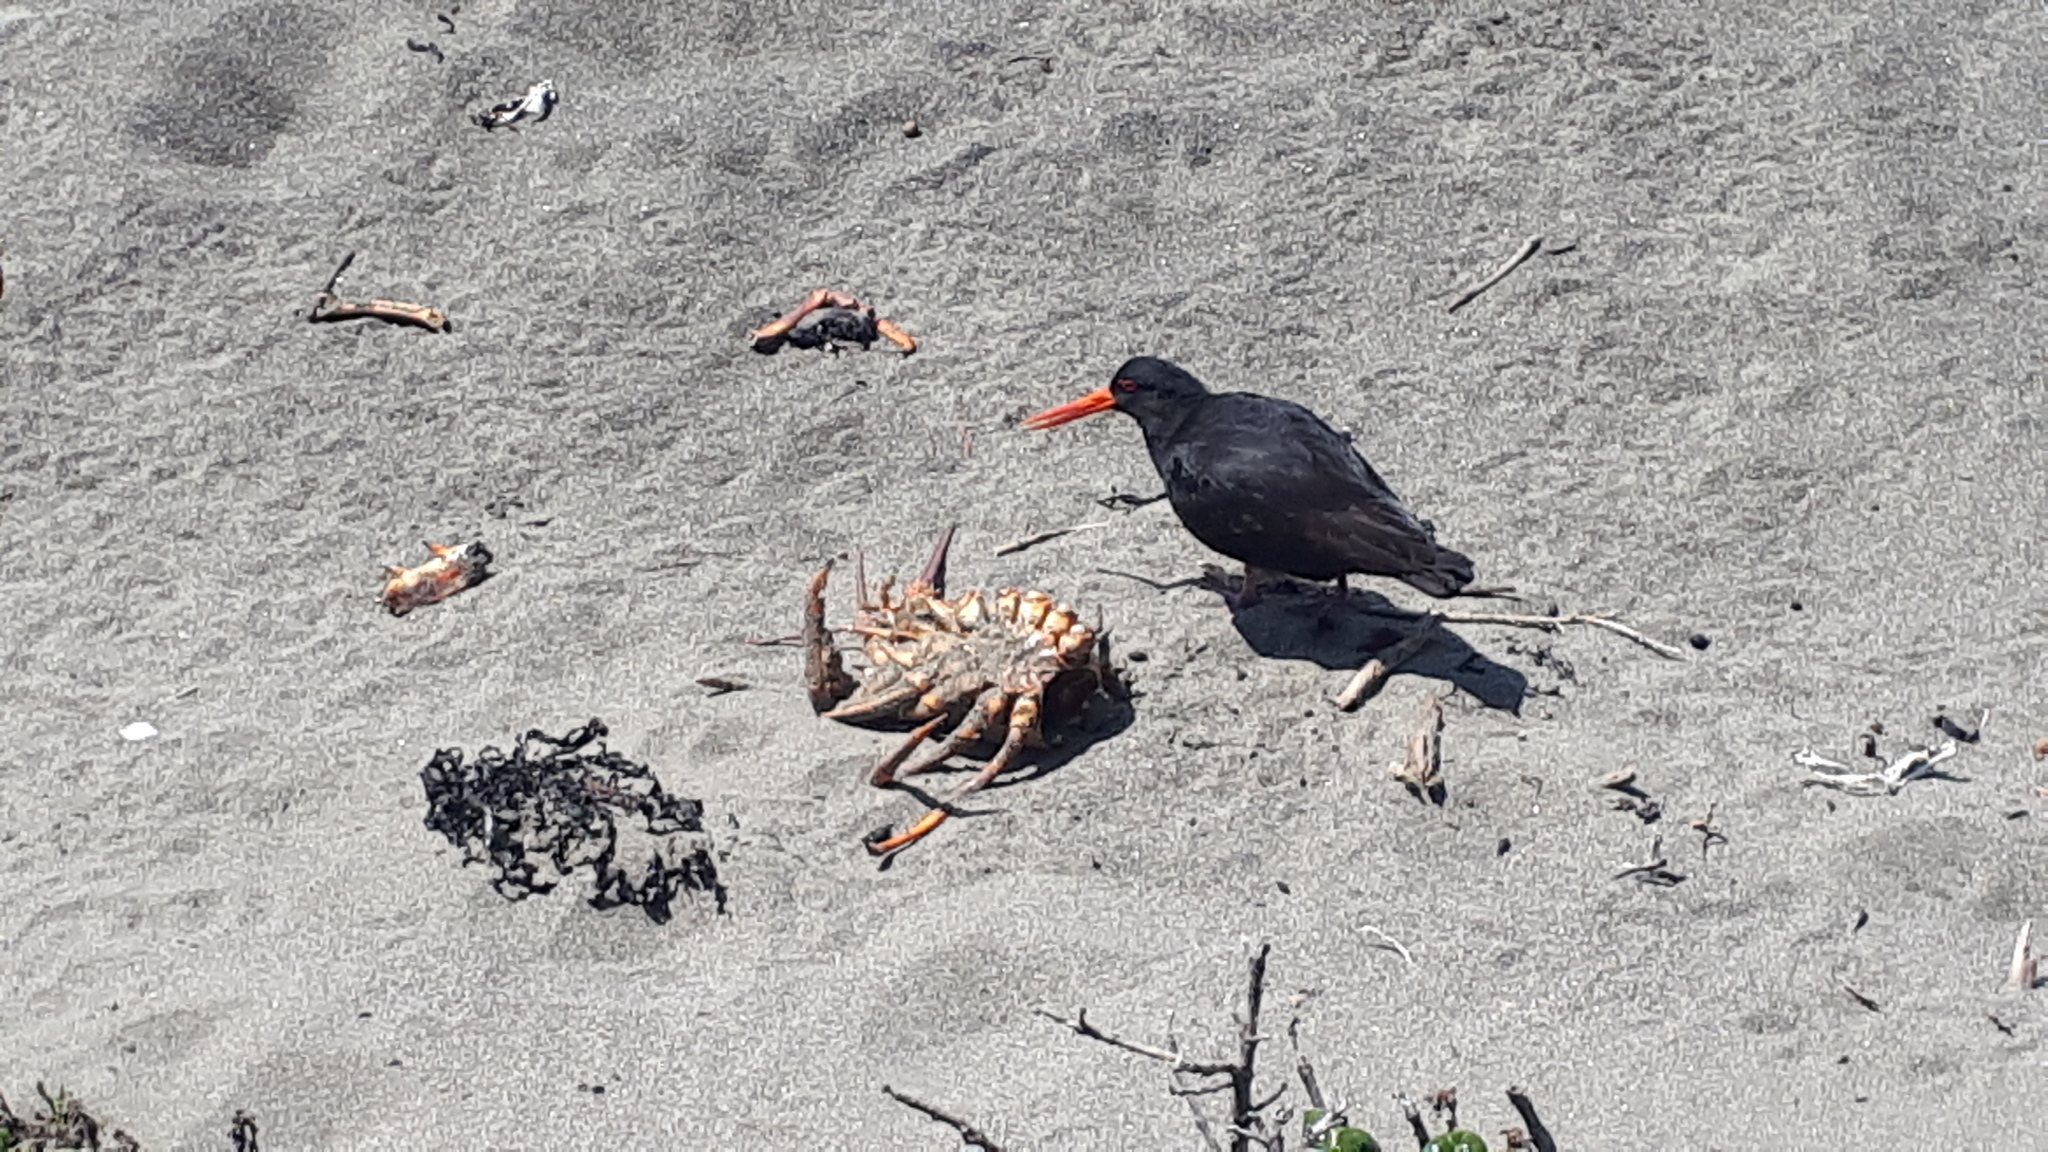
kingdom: Animalia
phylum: Chordata
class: Aves
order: Charadriiformes
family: Haematopodidae
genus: Haematopus
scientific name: Haematopus unicolor
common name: Variable oystercatcher
